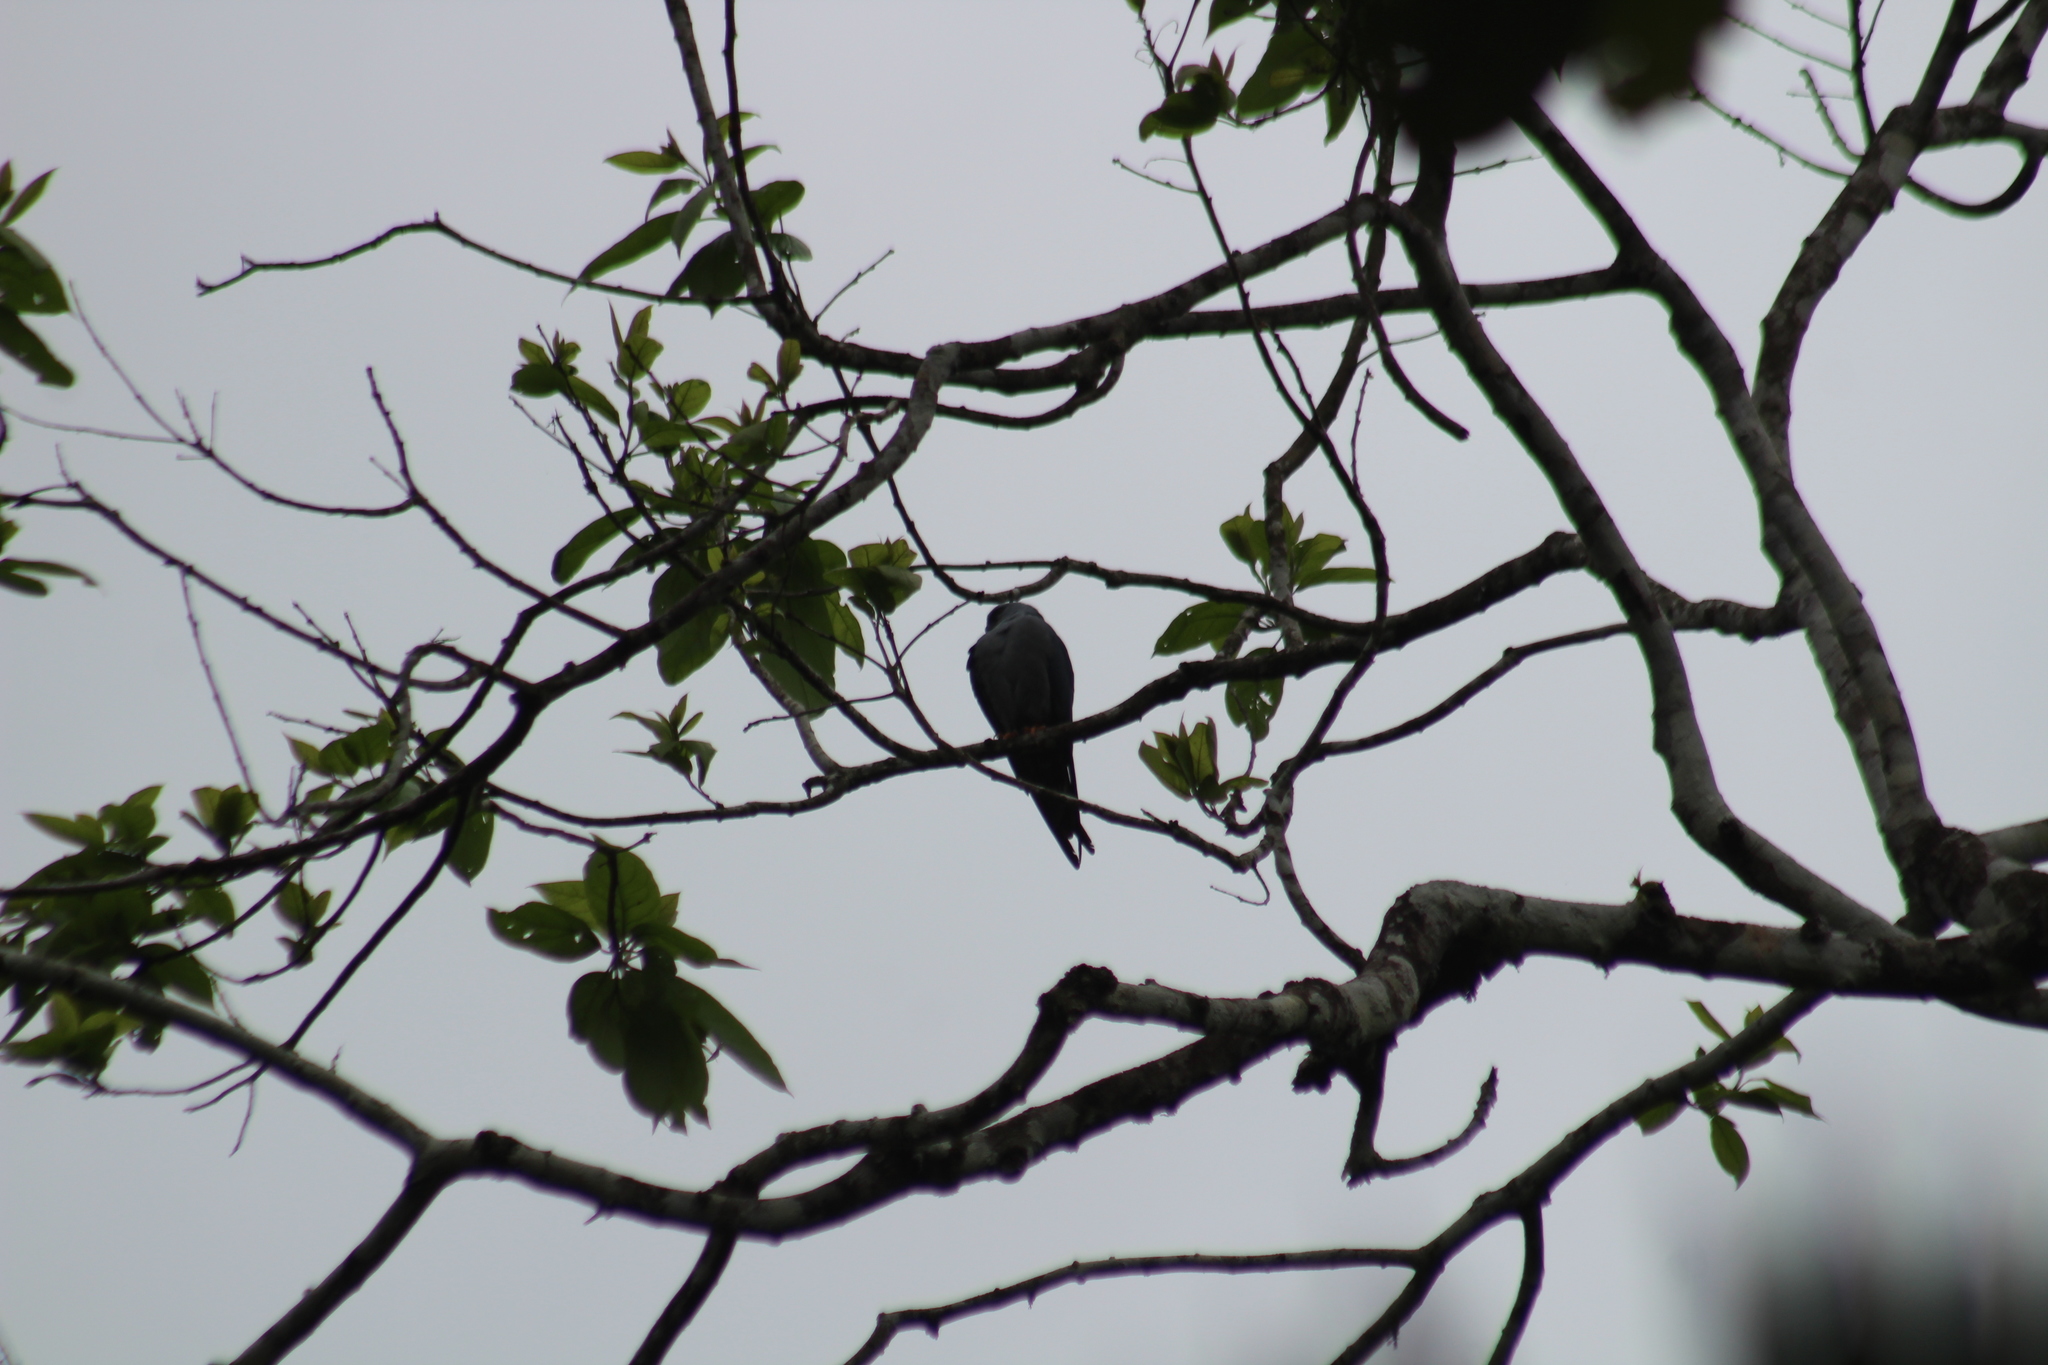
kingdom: Animalia
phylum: Chordata
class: Aves
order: Accipitriformes
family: Accipitridae
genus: Ictinia
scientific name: Ictinia plumbea
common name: Plumbeous kite
